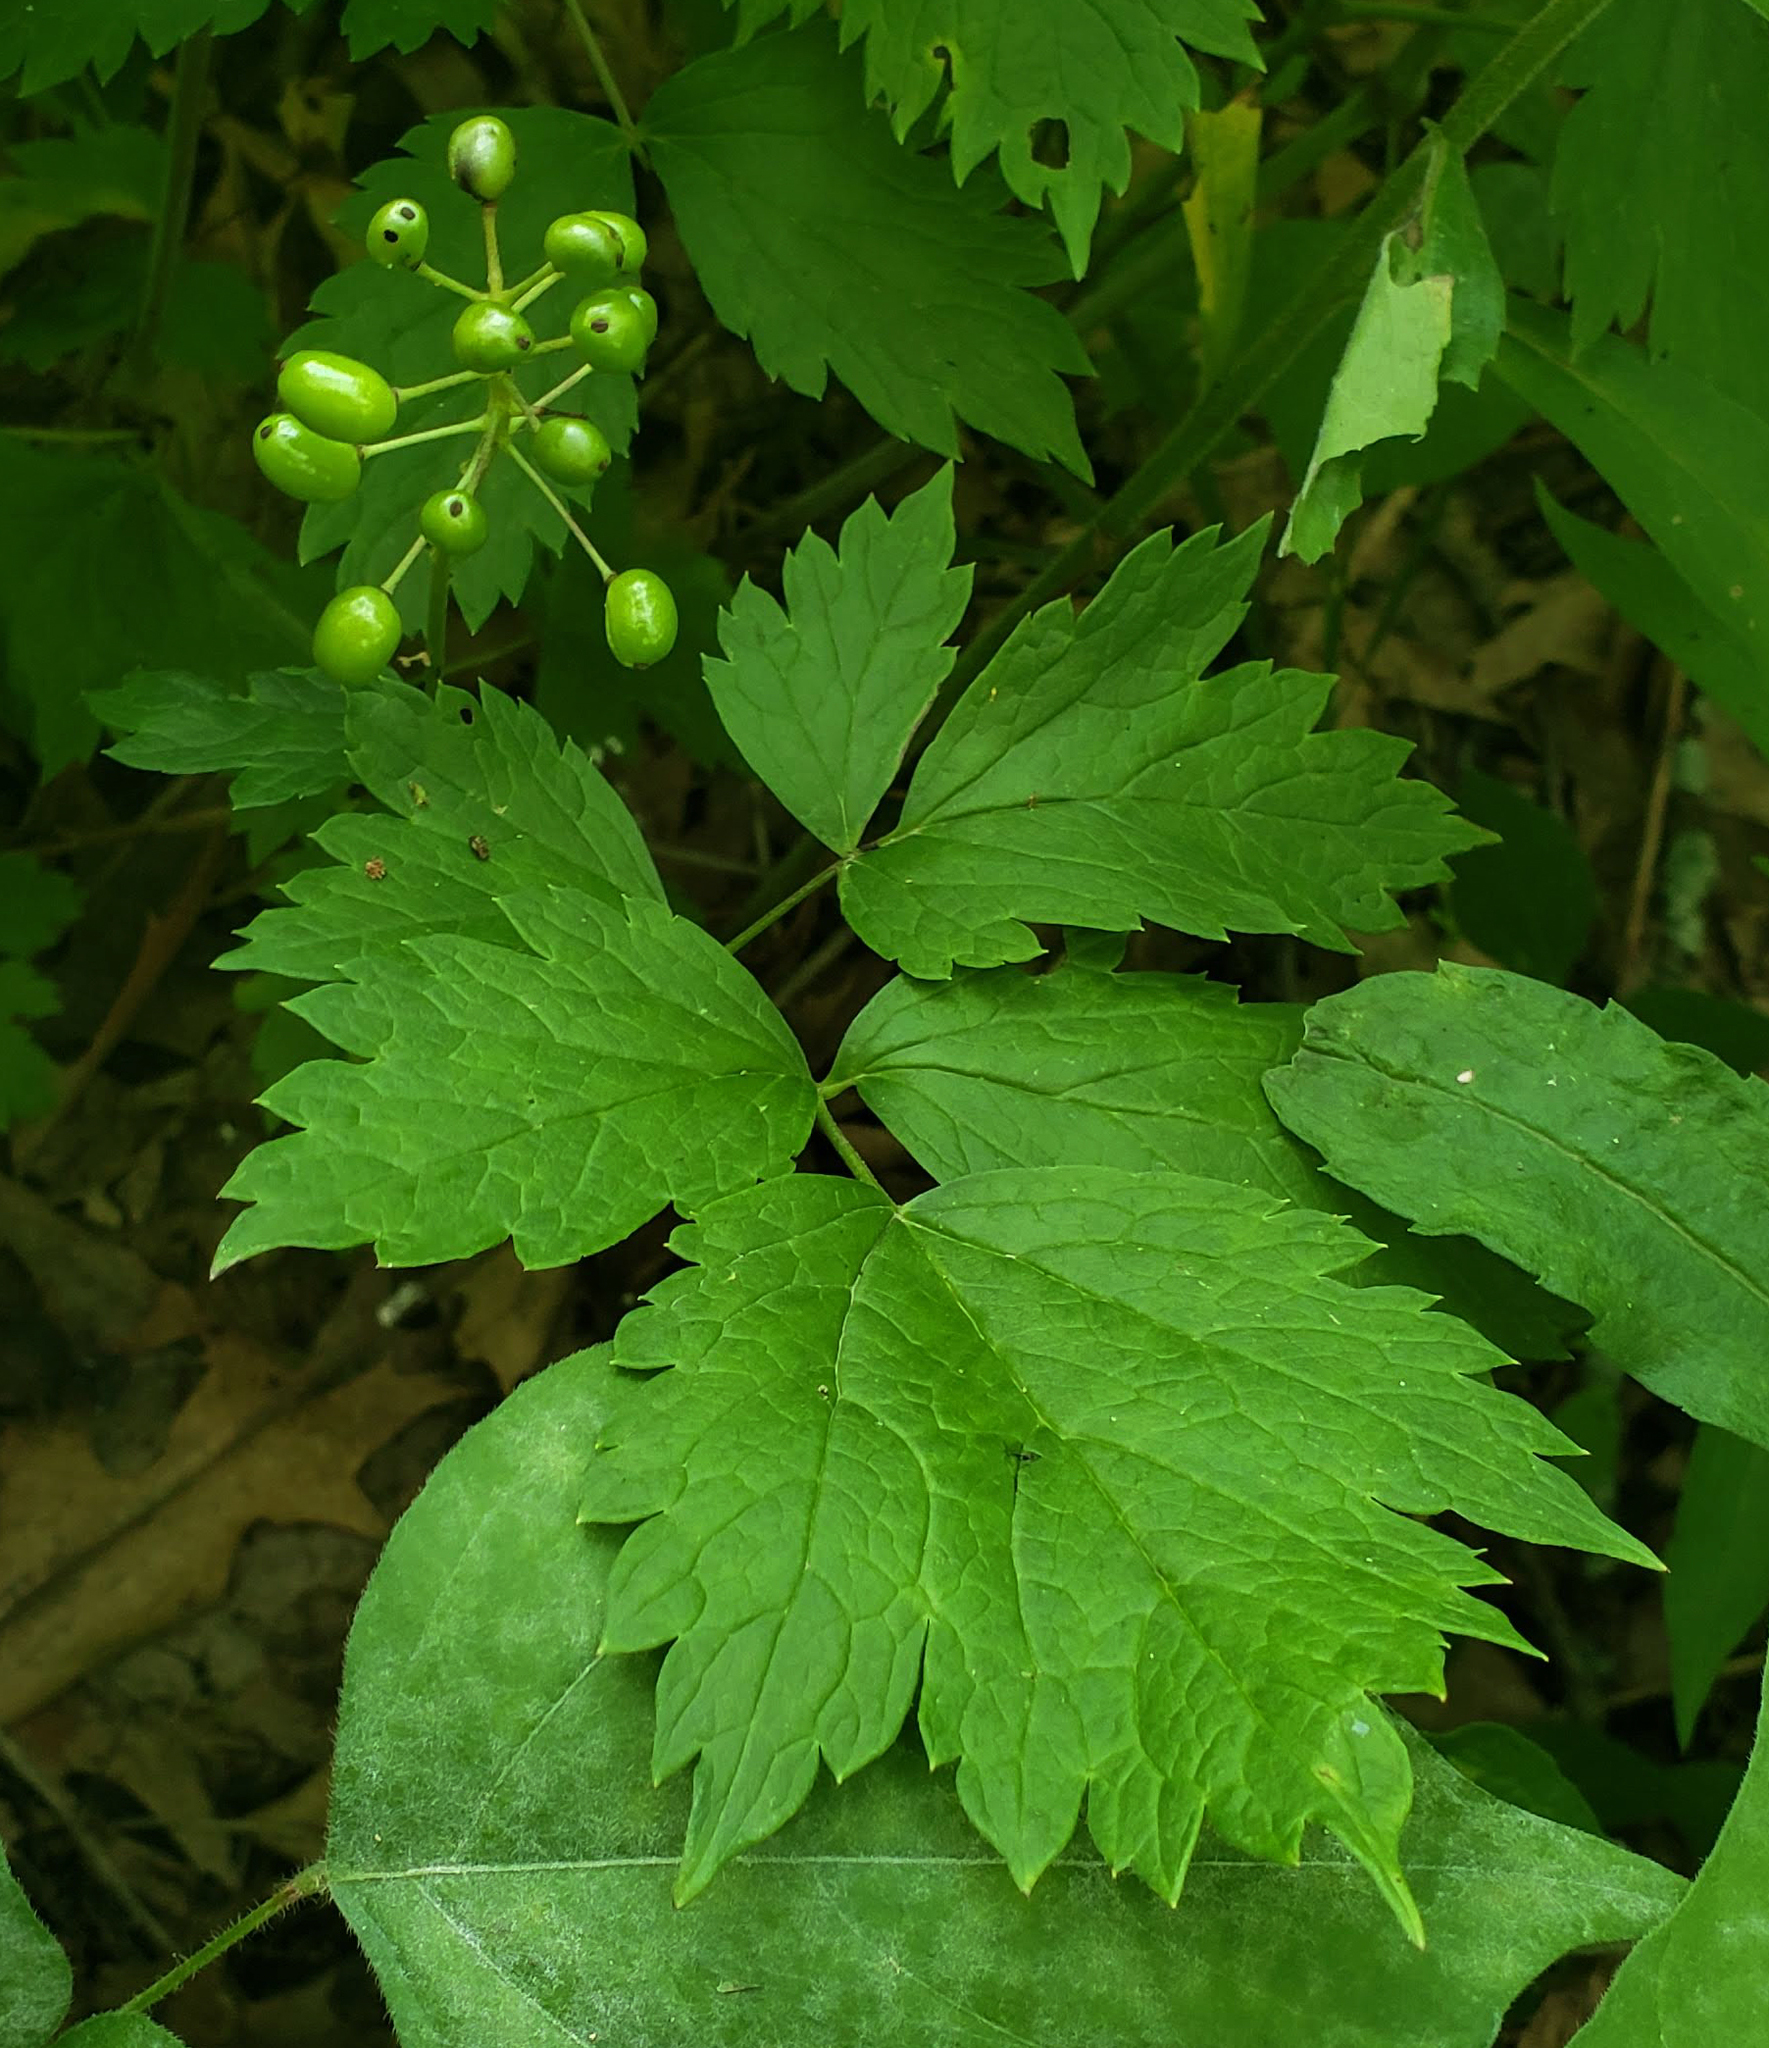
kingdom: Plantae
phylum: Tracheophyta
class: Magnoliopsida
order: Ranunculales
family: Ranunculaceae
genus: Actaea
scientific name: Actaea rubra
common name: Red baneberry
